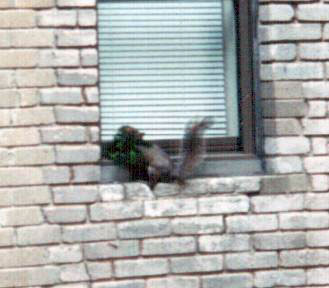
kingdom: Animalia
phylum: Chordata
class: Mammalia
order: Rodentia
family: Sciuridae
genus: Sciurus
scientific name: Sciurus carolinensis
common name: Eastern gray squirrel
